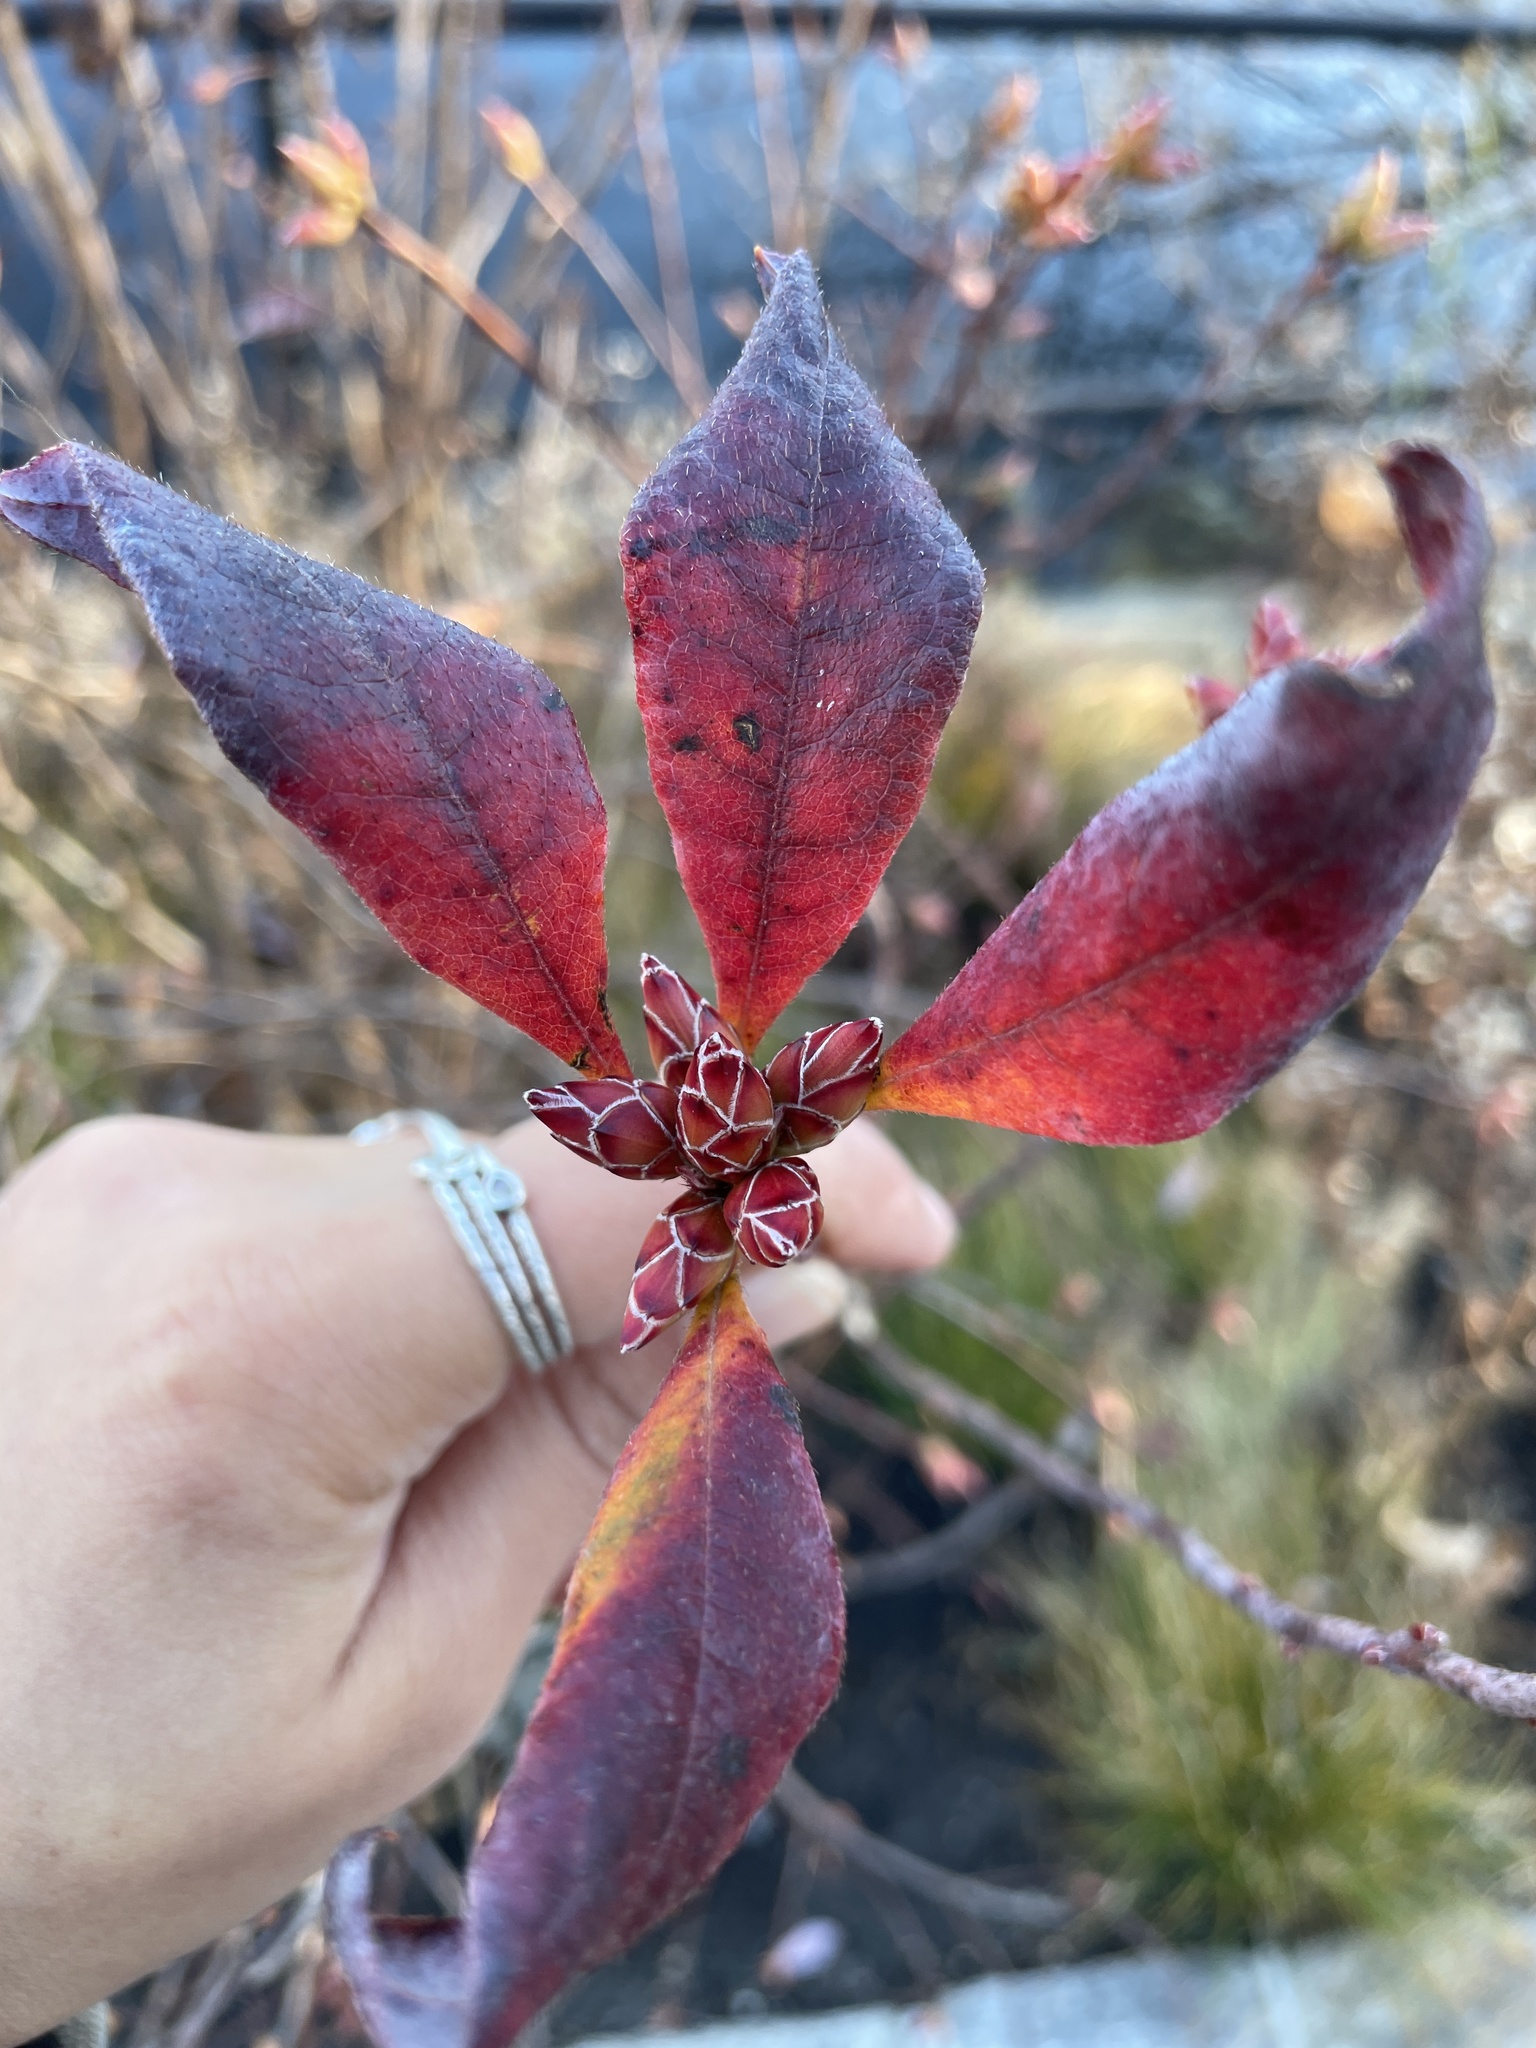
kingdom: Plantae
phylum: Tracheophyta
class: Magnoliopsida
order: Ericales
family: Ericaceae
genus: Rhododendron
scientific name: Rhododendron viscosum
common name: Clammy azalea
